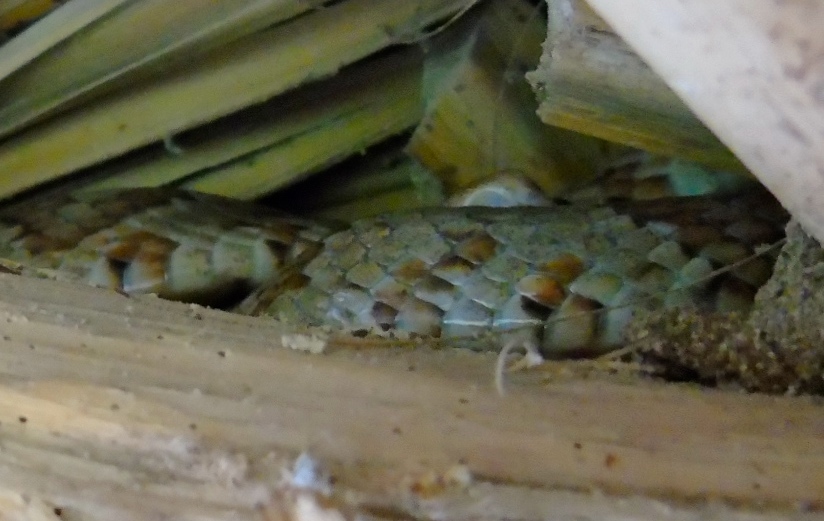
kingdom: Animalia
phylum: Chordata
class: Squamata
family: Colubridae
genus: Trimorphodon
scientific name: Trimorphodon paucimaculatus
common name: Sinaloan lyresnake
